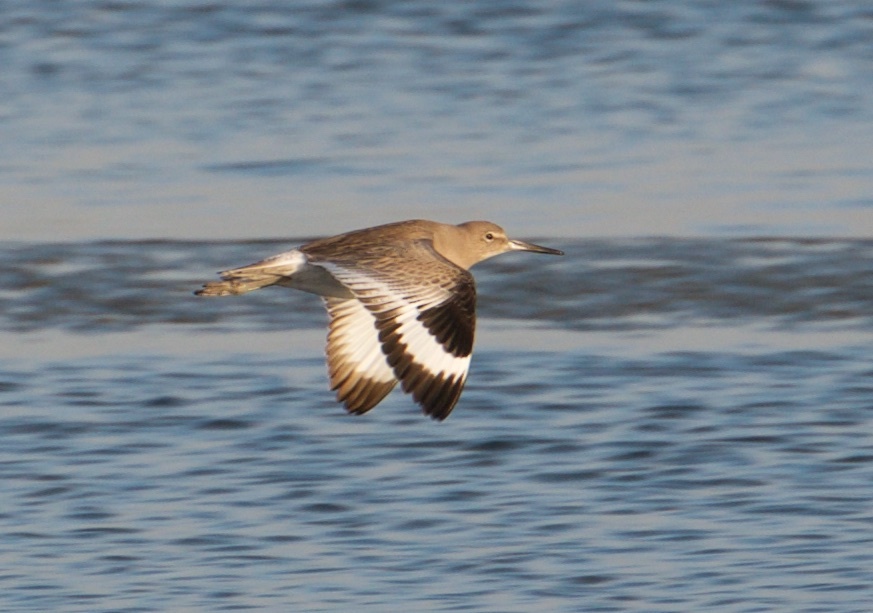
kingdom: Animalia
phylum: Chordata
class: Aves
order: Charadriiformes
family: Scolopacidae
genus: Tringa
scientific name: Tringa semipalmata
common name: Willet
